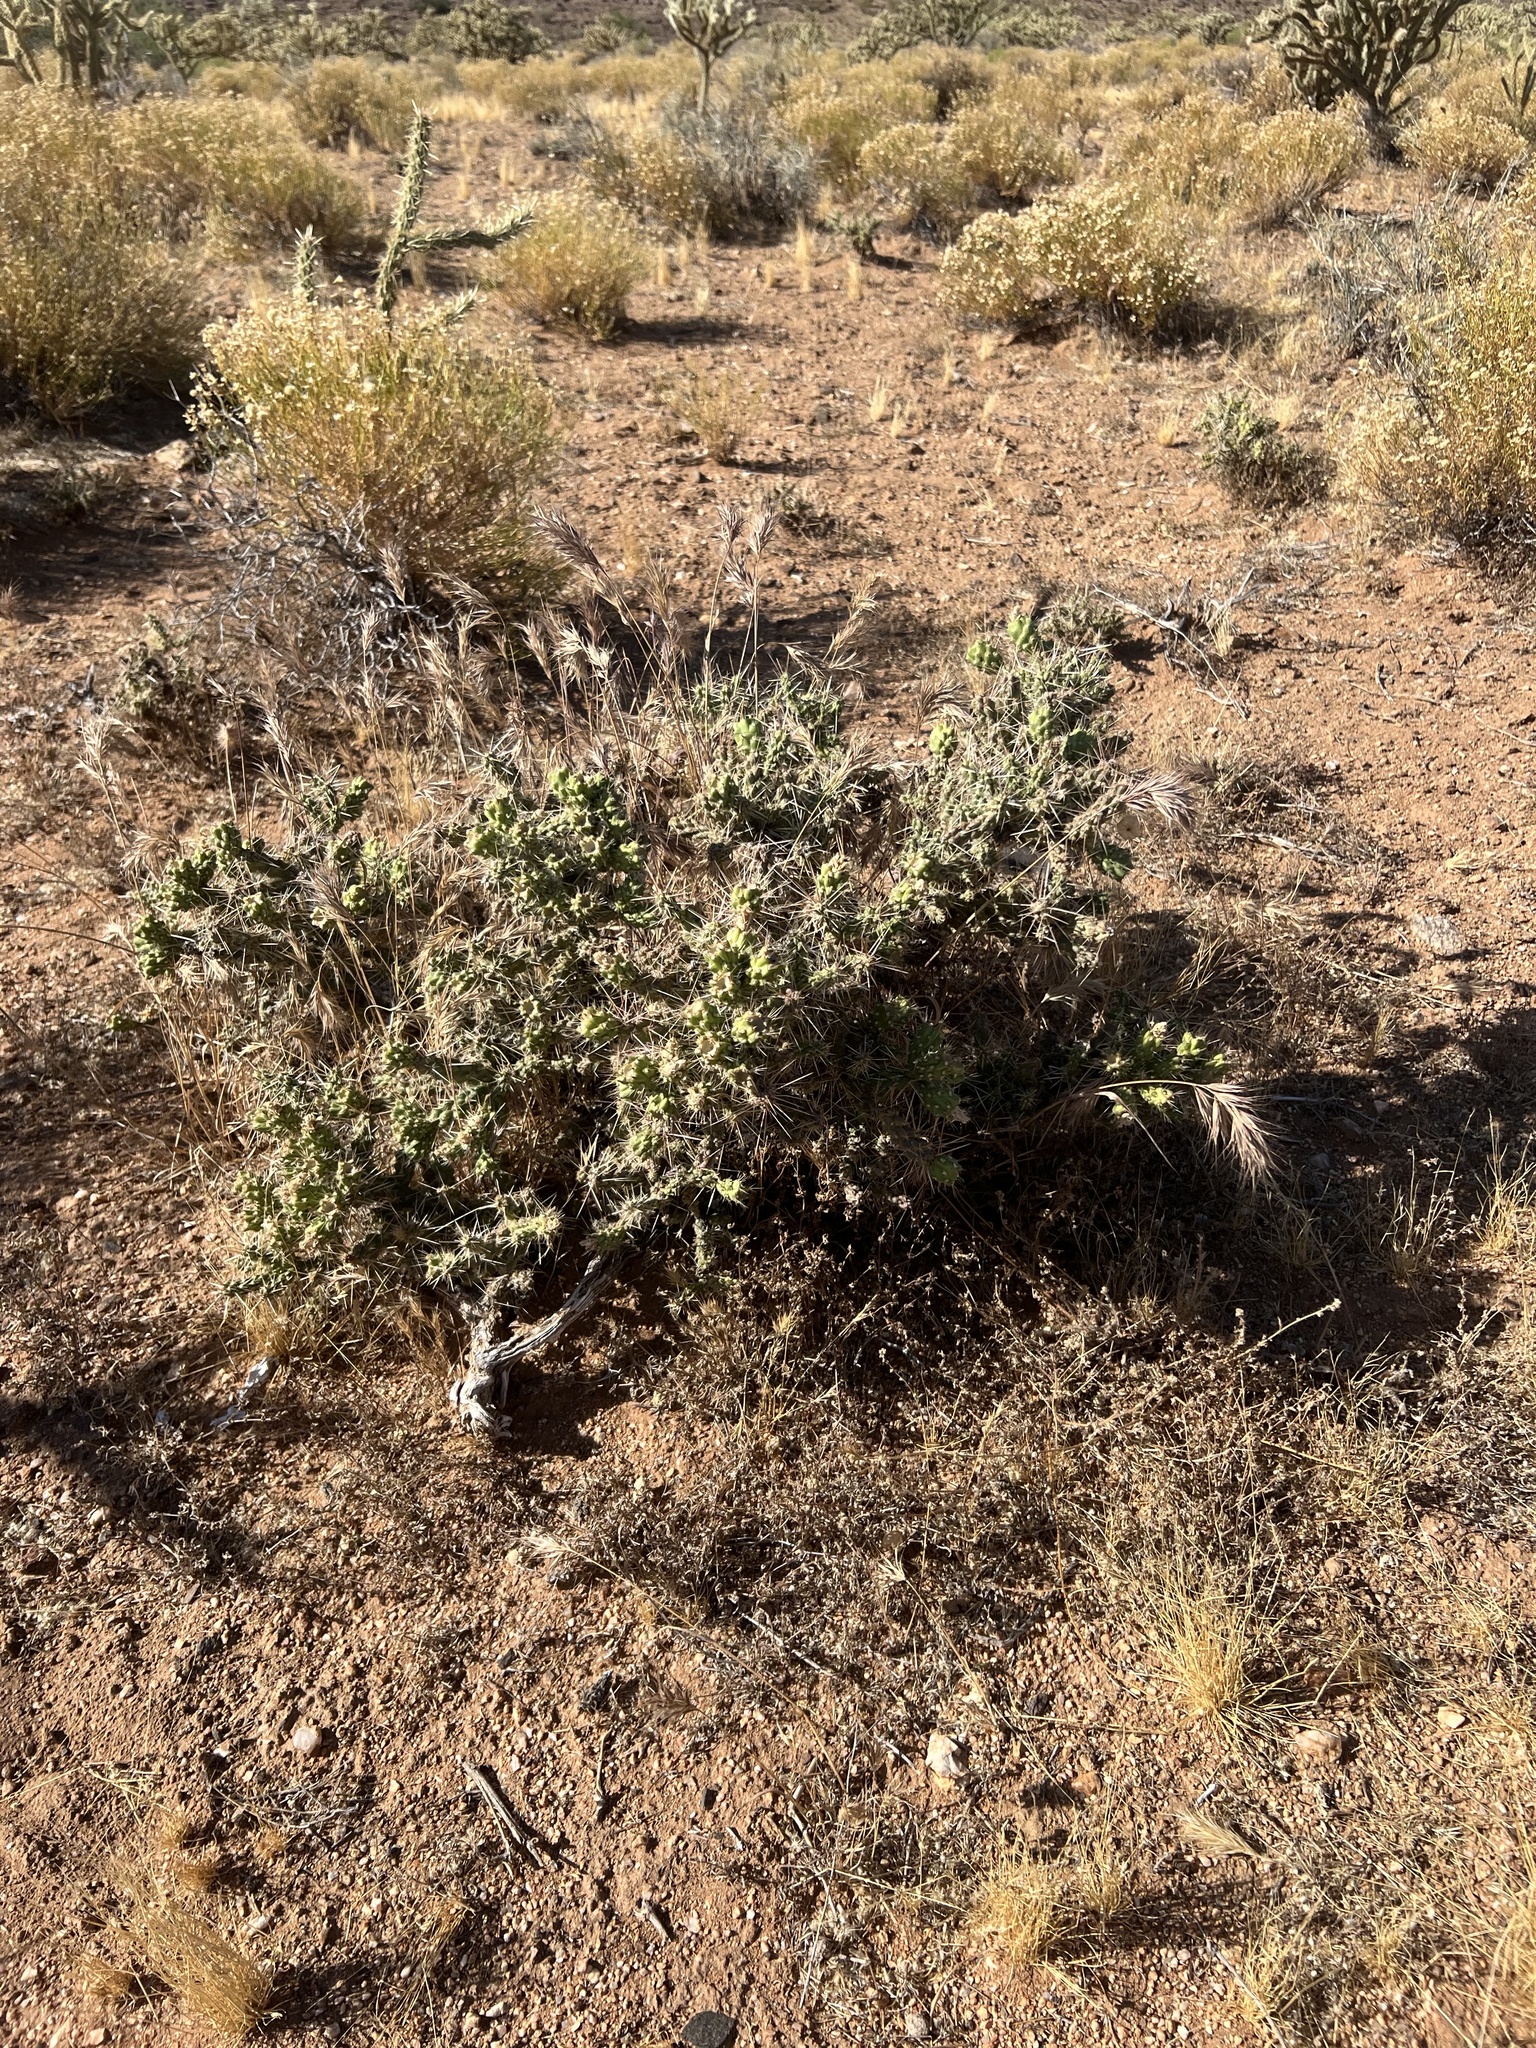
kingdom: Plantae
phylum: Tracheophyta
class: Magnoliopsida
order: Caryophyllales
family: Cactaceae
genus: Cylindropuntia
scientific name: Cylindropuntia whipplei
